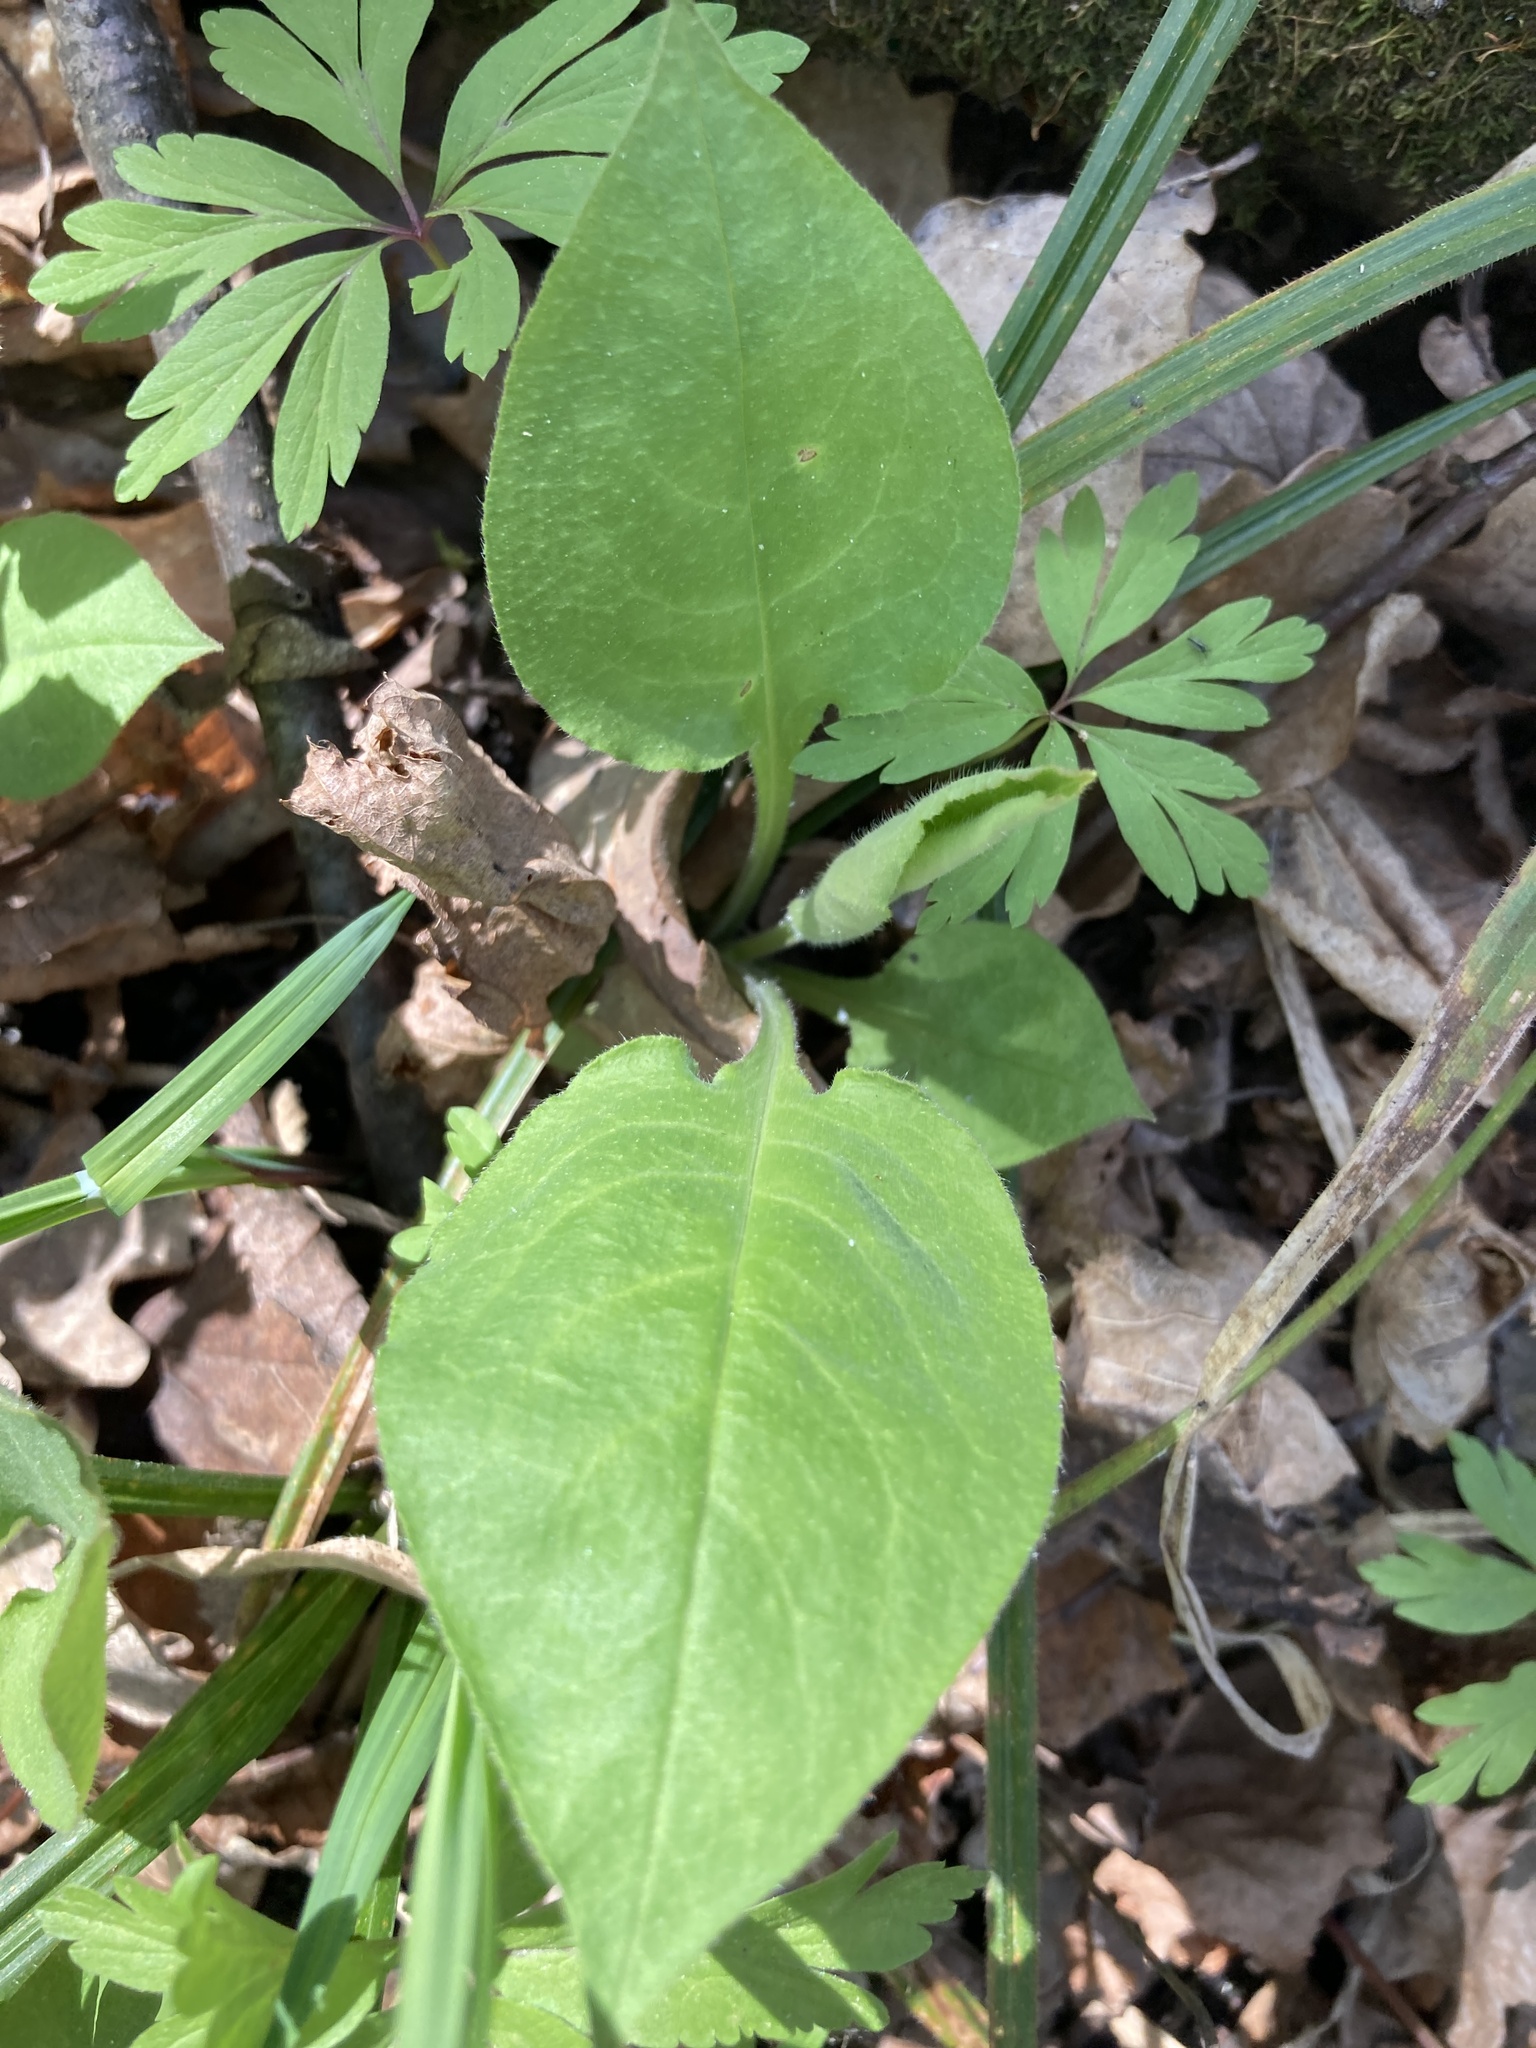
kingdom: Plantae
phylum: Tracheophyta
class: Magnoliopsida
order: Boraginales
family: Boraginaceae
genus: Pulmonaria
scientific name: Pulmonaria obscura
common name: Suffolk lungwort
